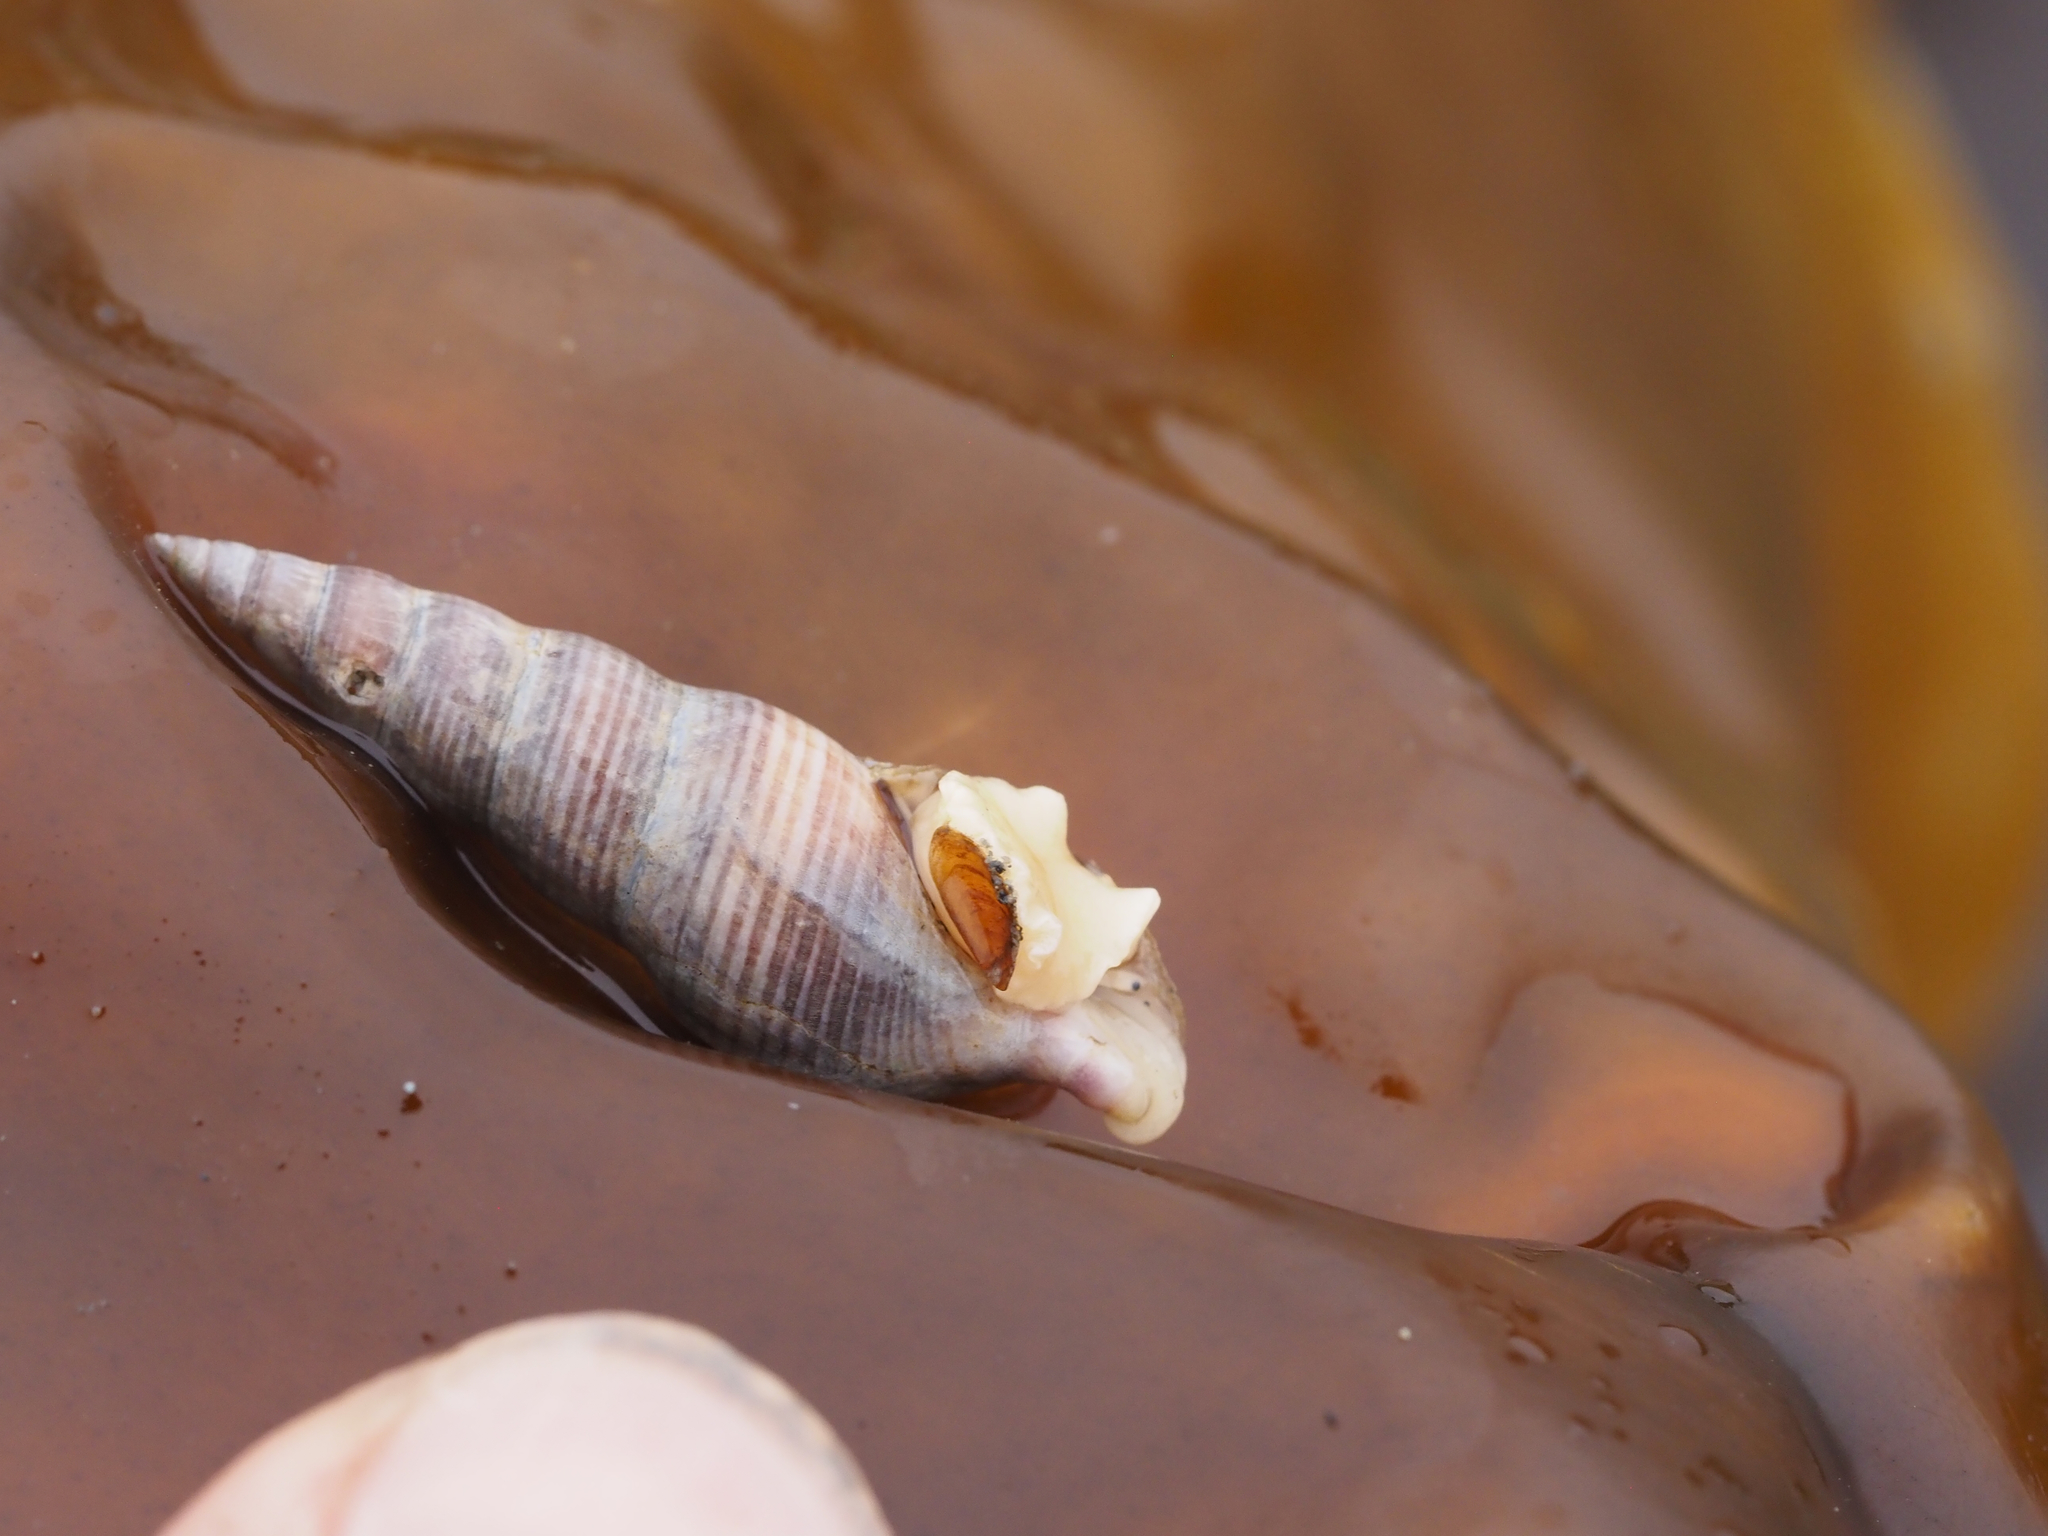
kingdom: Animalia
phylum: Mollusca
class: Gastropoda
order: Neogastropoda
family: Borsoniidae
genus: Ophiodermella
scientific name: Ophiodermella inermis
